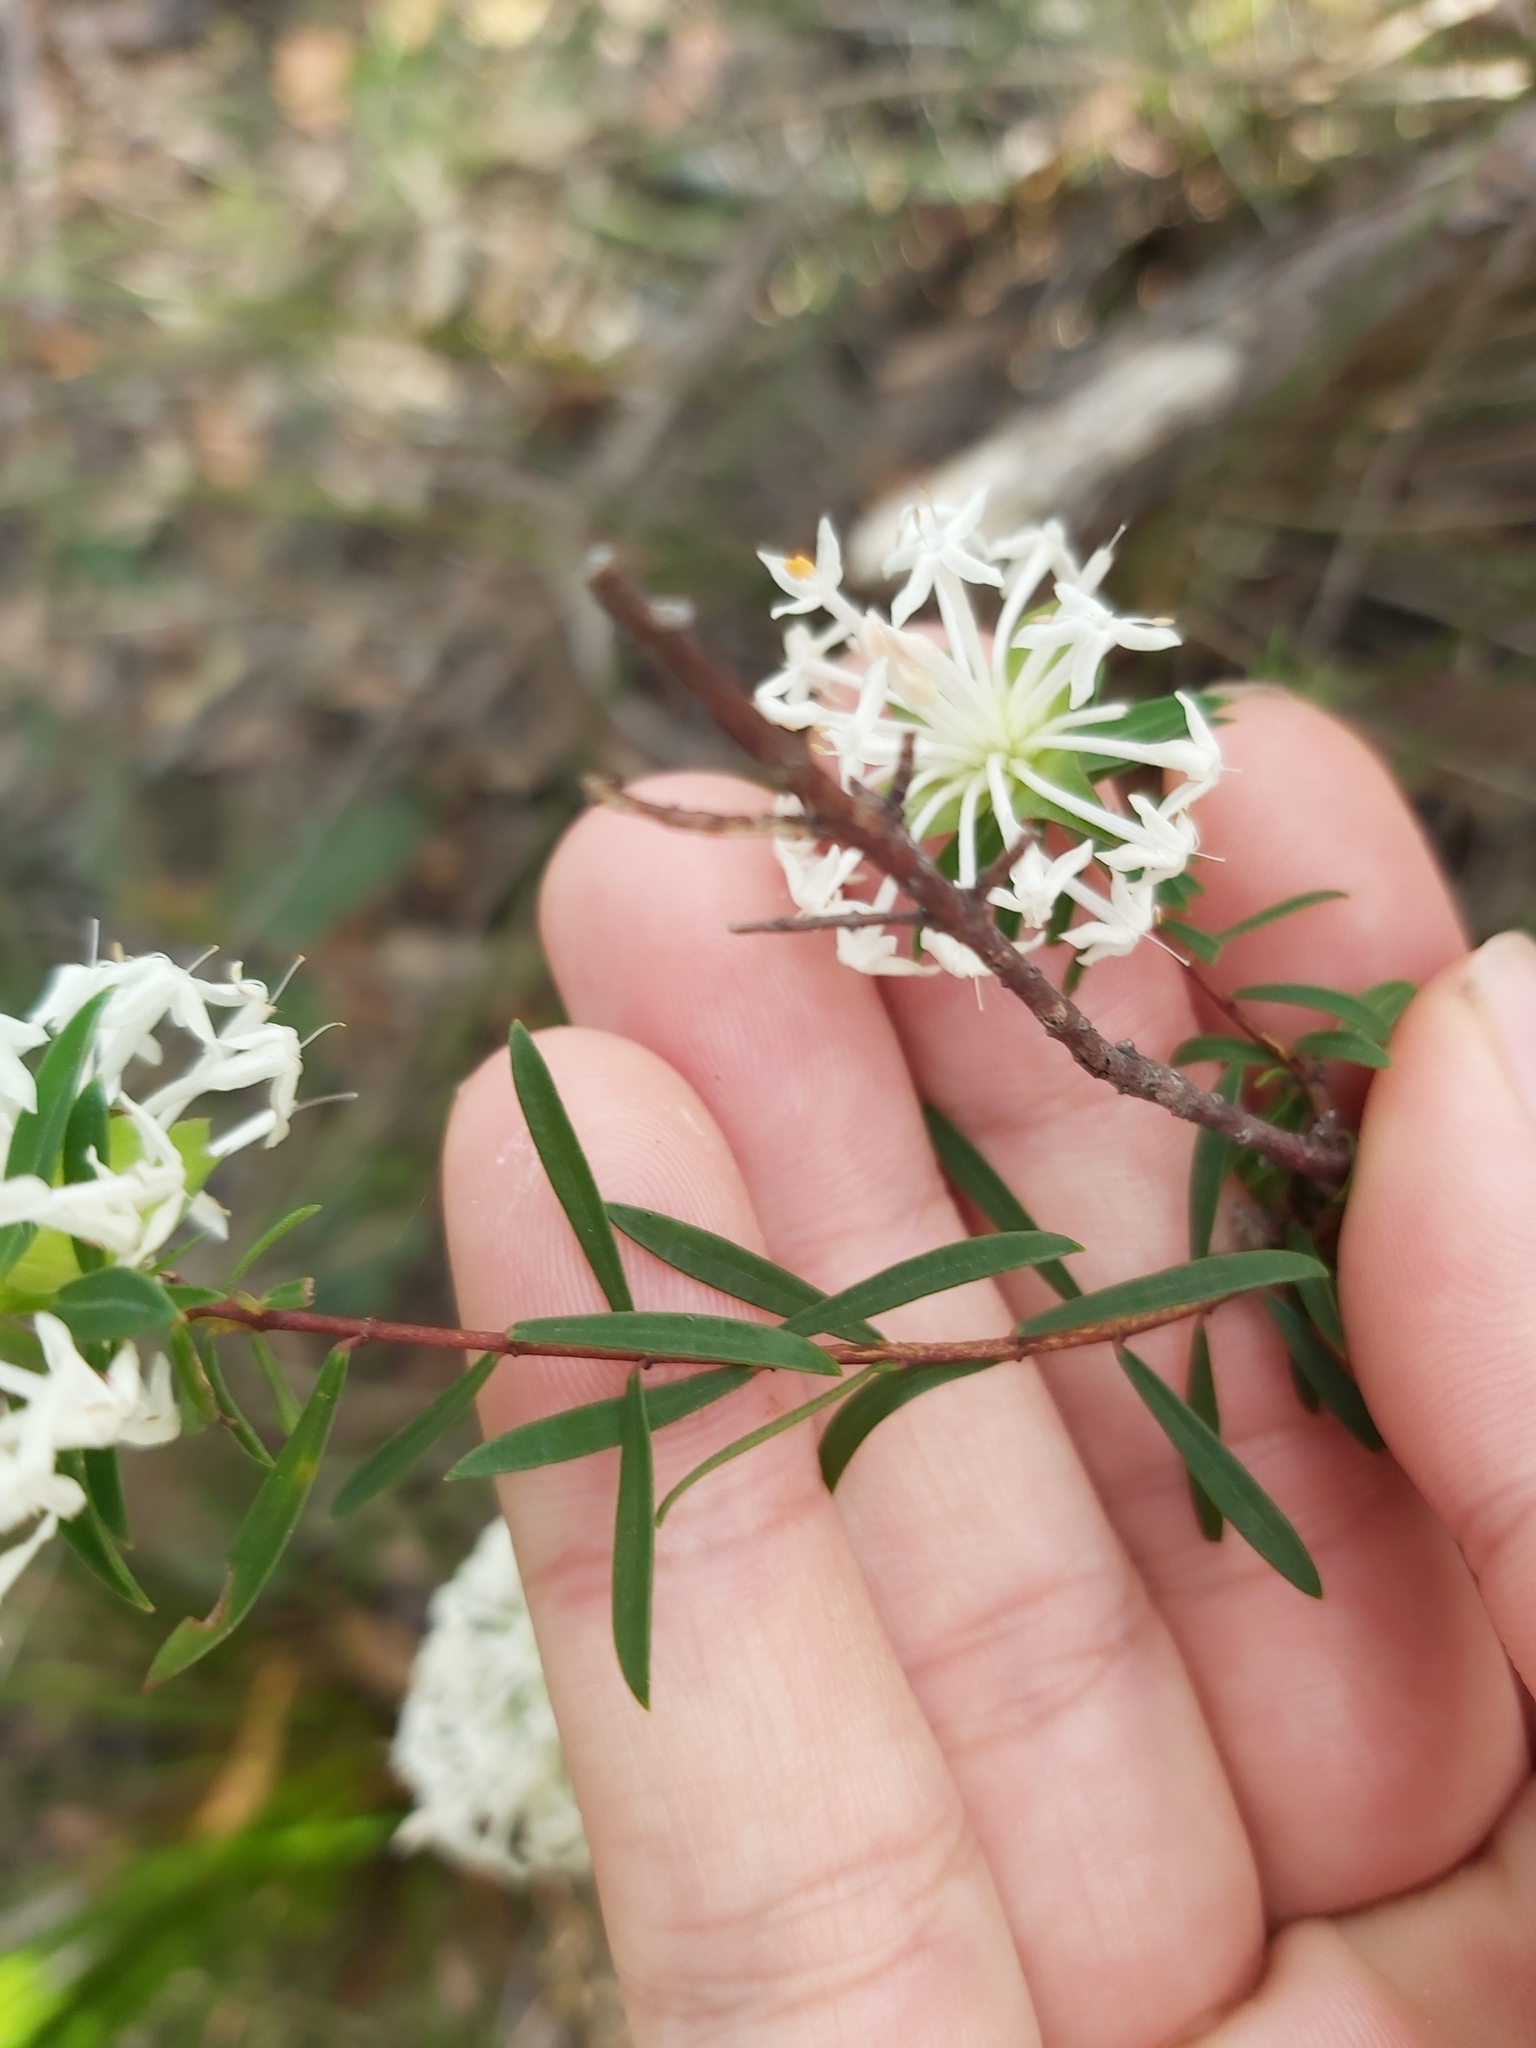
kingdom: Plantae
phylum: Tracheophyta
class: Magnoliopsida
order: Malvales
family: Thymelaeaceae
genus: Pimelea
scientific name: Pimelea linifolia
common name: Queen-of-the-bush
